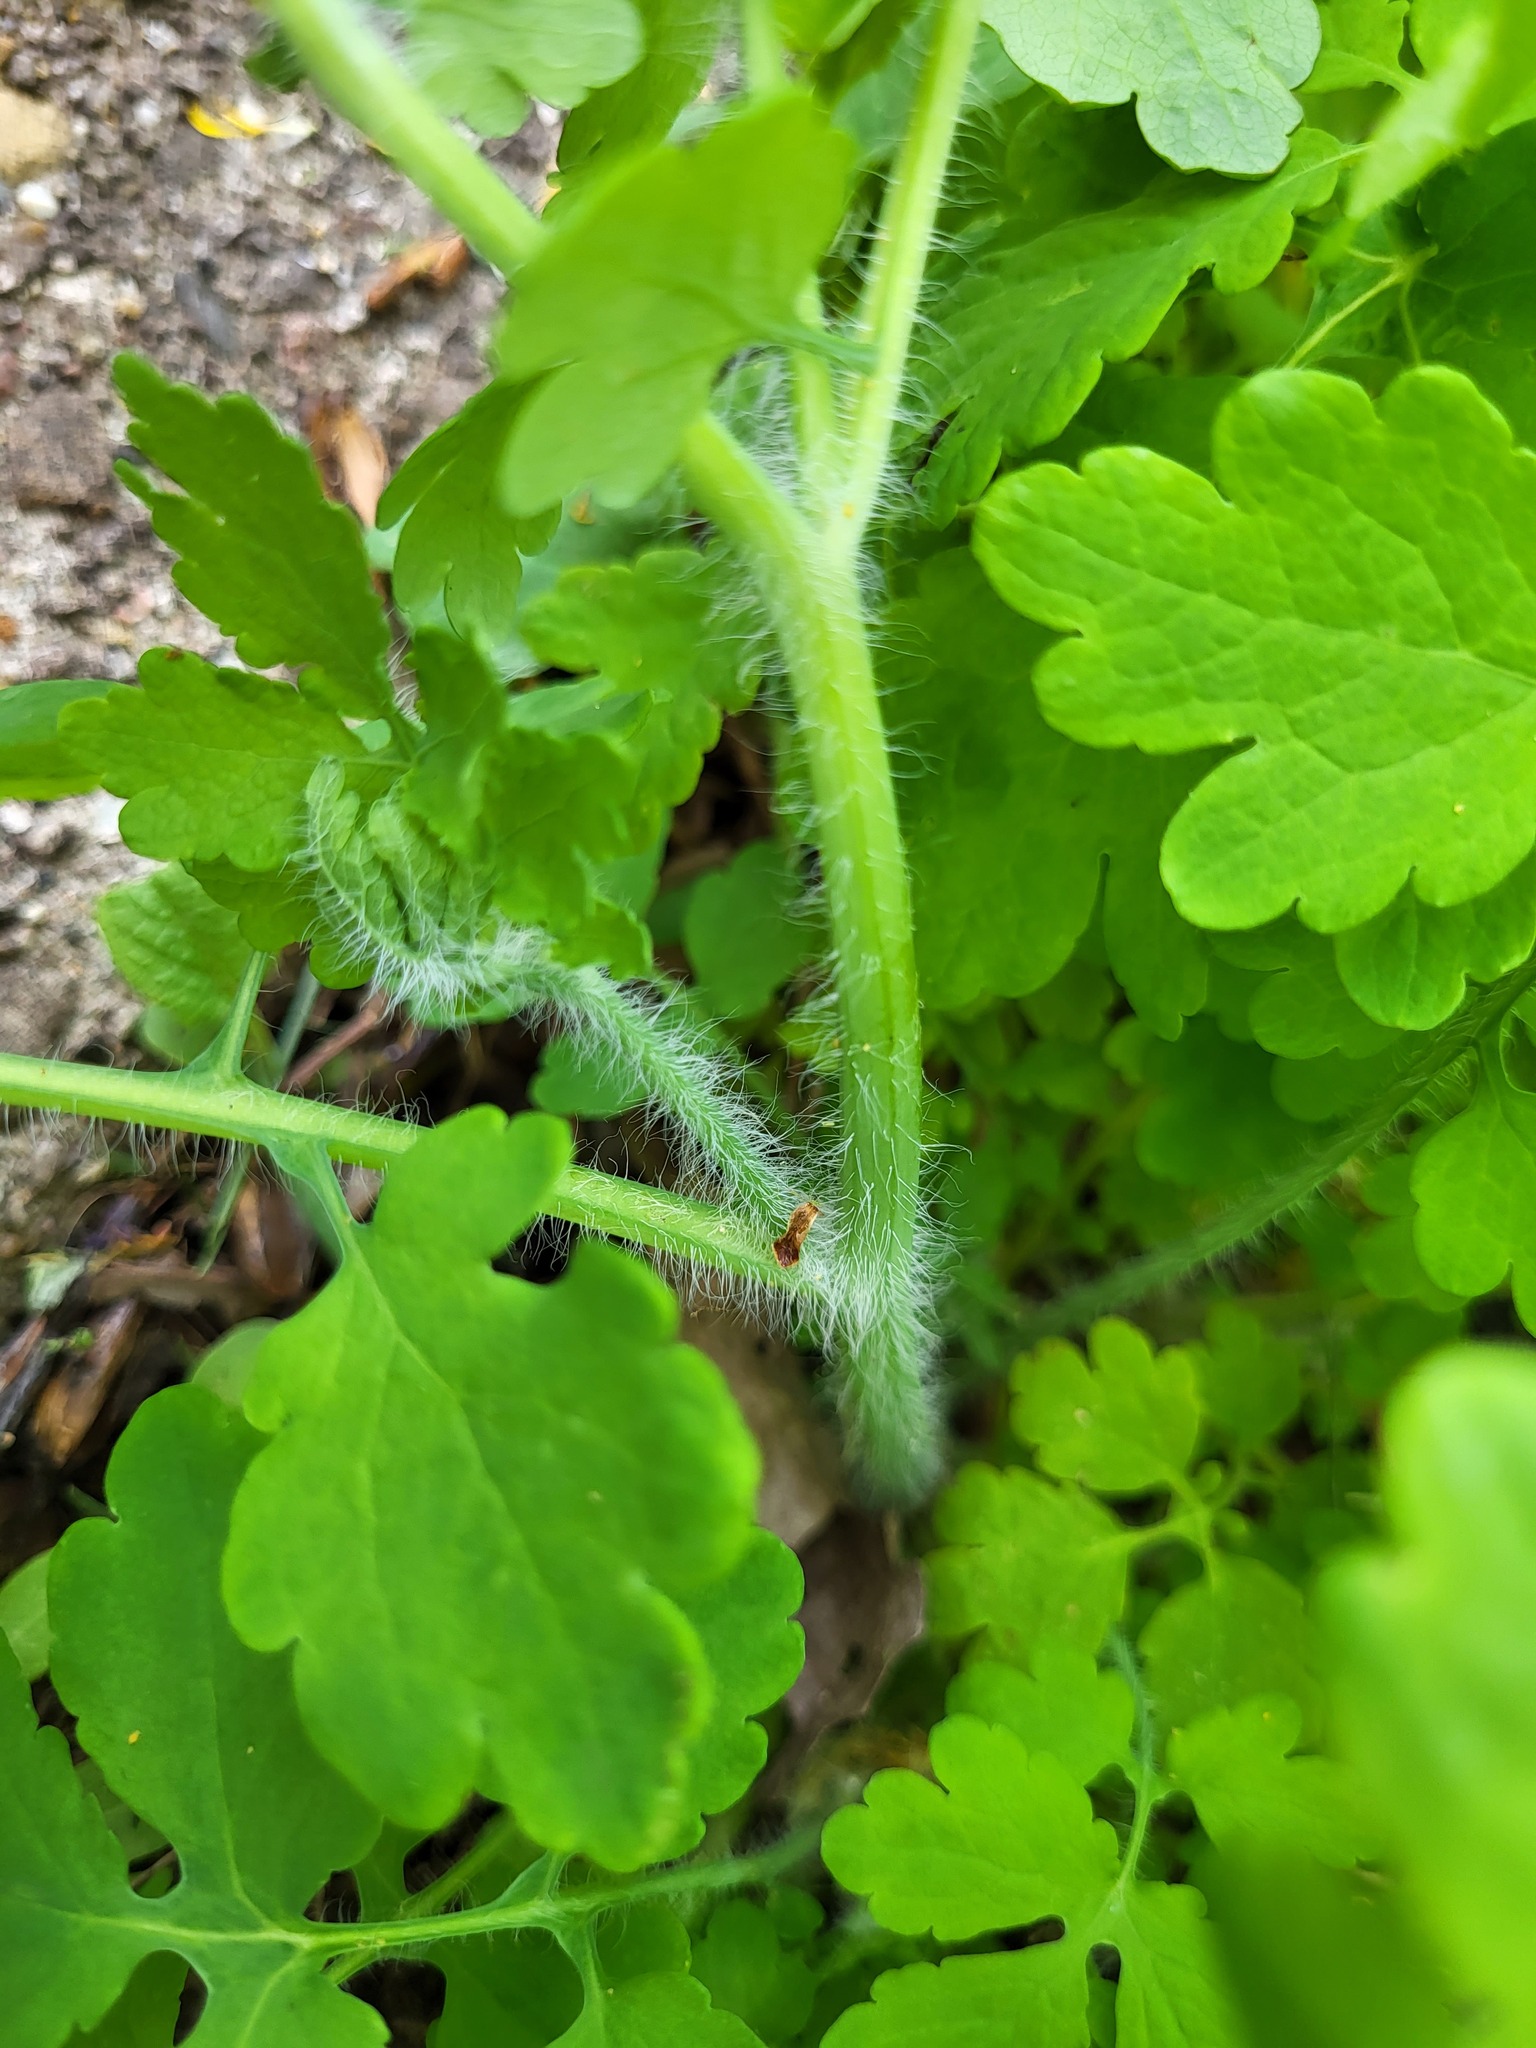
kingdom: Plantae
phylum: Tracheophyta
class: Magnoliopsida
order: Ranunculales
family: Papaveraceae
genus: Chelidonium
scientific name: Chelidonium majus
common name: Greater celandine
